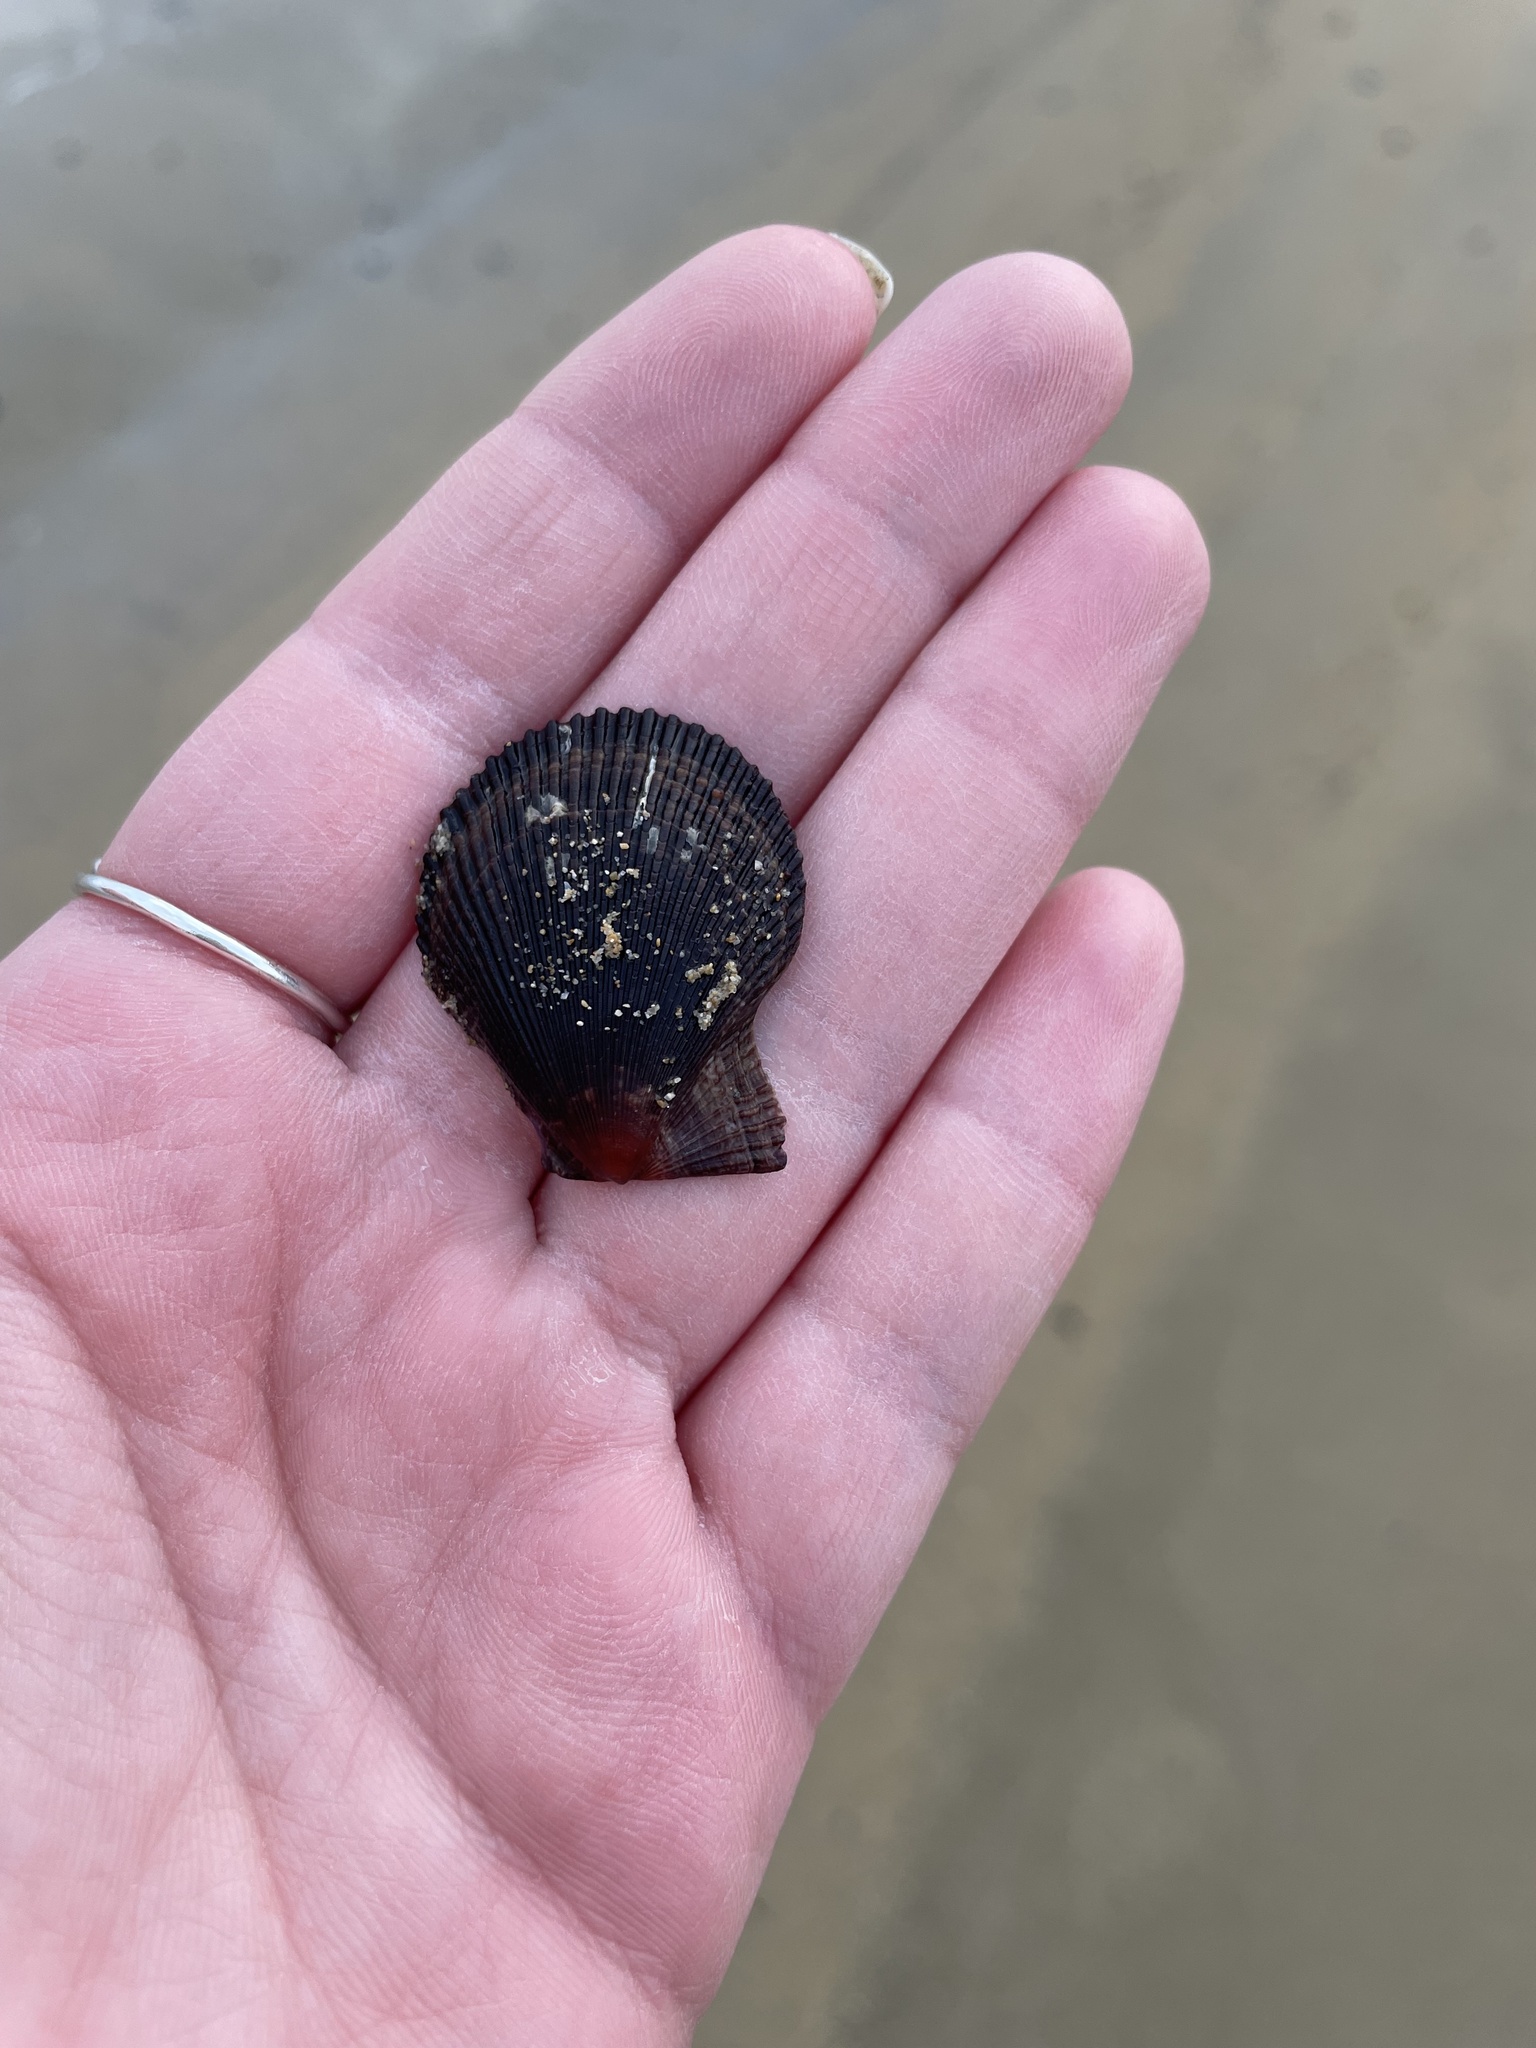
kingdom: Animalia
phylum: Mollusca
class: Bivalvia
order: Pectinida
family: Pectinidae
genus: Mimachlamys
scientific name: Mimachlamys varia
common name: Variegated scallop
